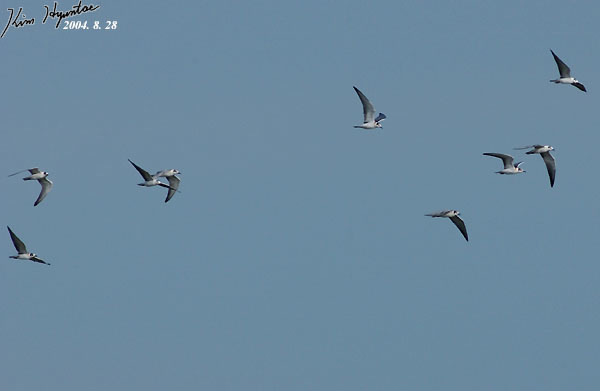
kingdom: Animalia
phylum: Chordata
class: Aves
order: Charadriiformes
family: Laridae
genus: Chlidonias
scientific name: Chlidonias leucopterus
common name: White-winged tern
